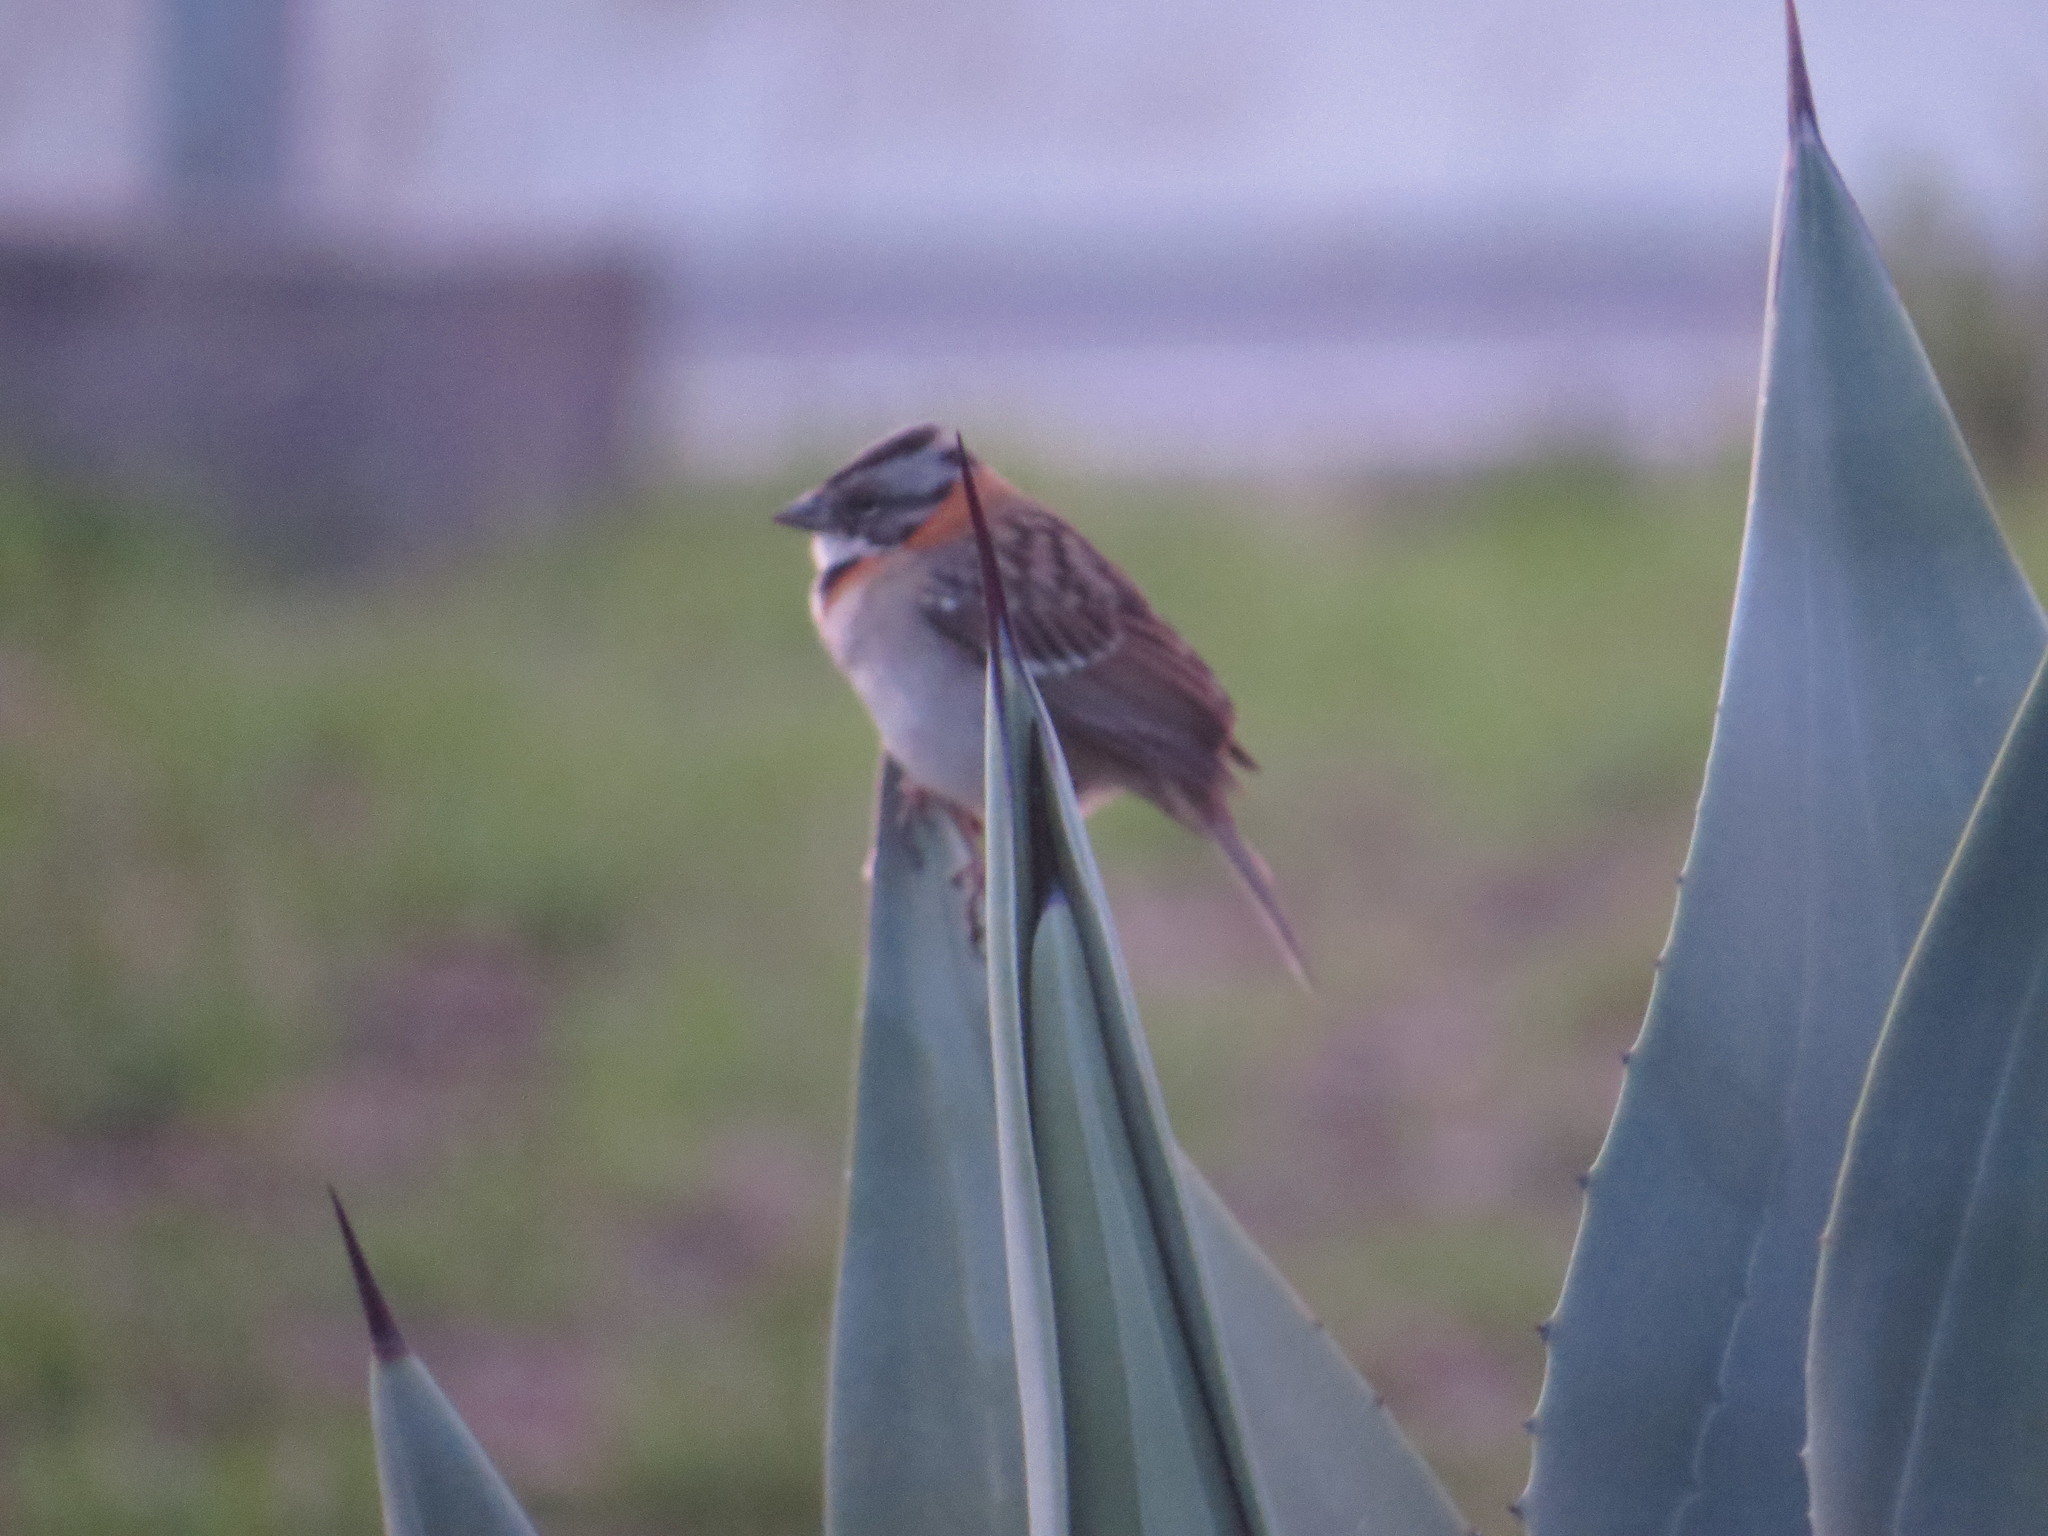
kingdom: Animalia
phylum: Chordata
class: Aves
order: Passeriformes
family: Passerellidae
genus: Zonotrichia
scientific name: Zonotrichia capensis
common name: Rufous-collared sparrow
